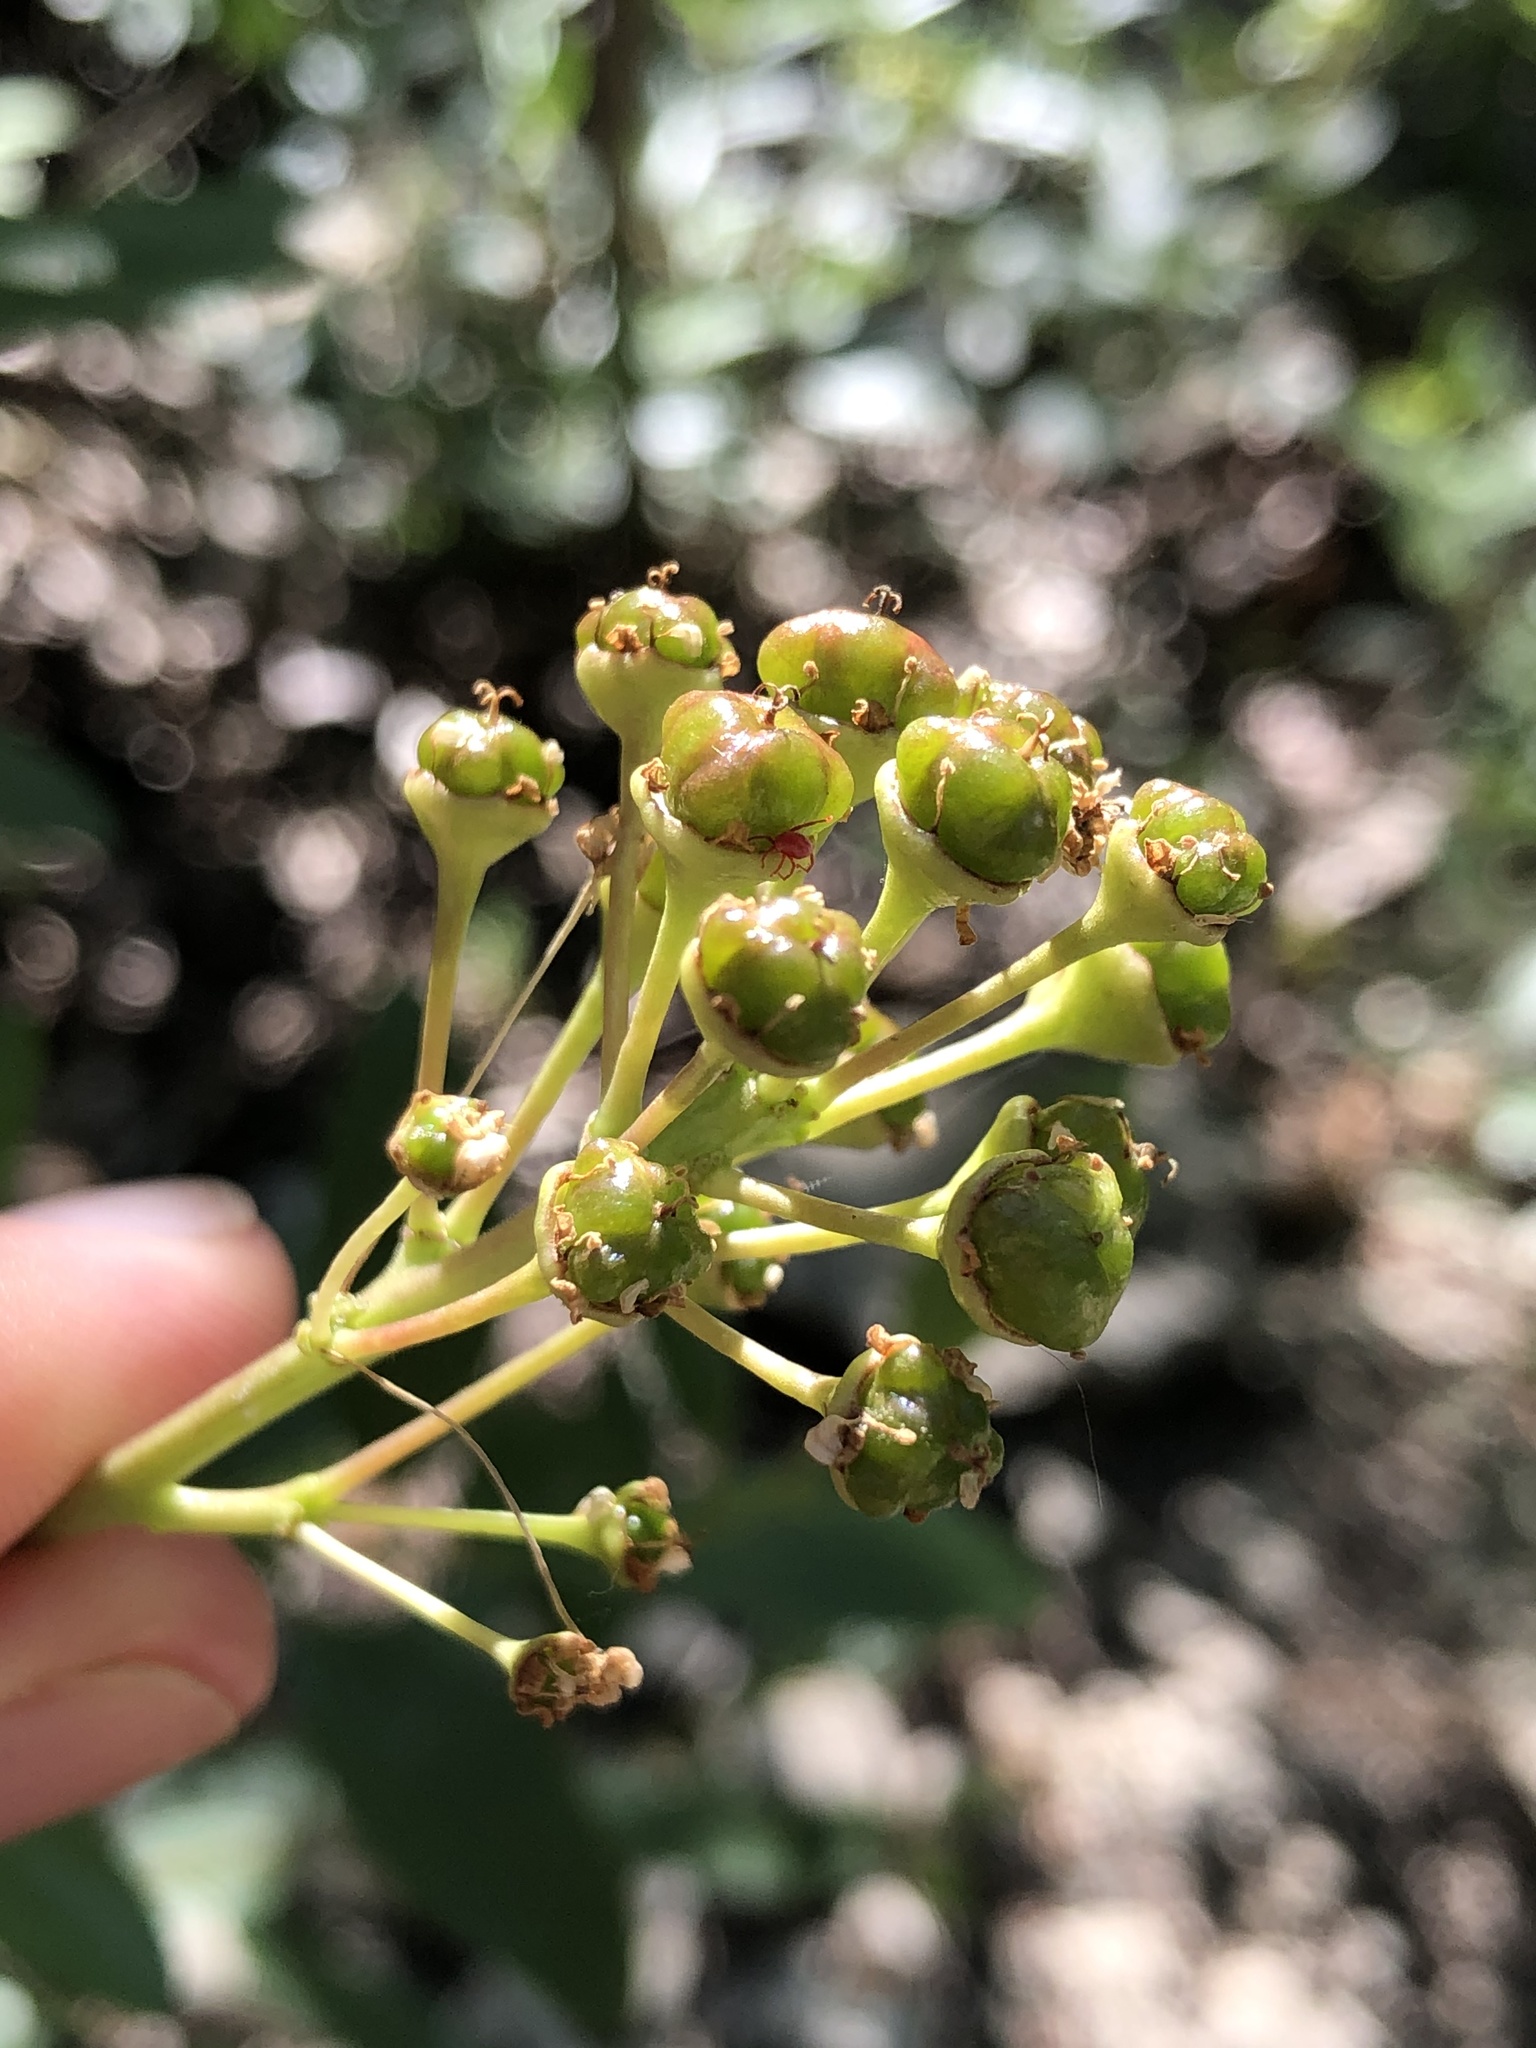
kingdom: Plantae
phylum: Tracheophyta
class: Magnoliopsida
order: Rosales
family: Rhamnaceae
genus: Ceanothus
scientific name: Ceanothus herbaceus
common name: Inland ceanothus
